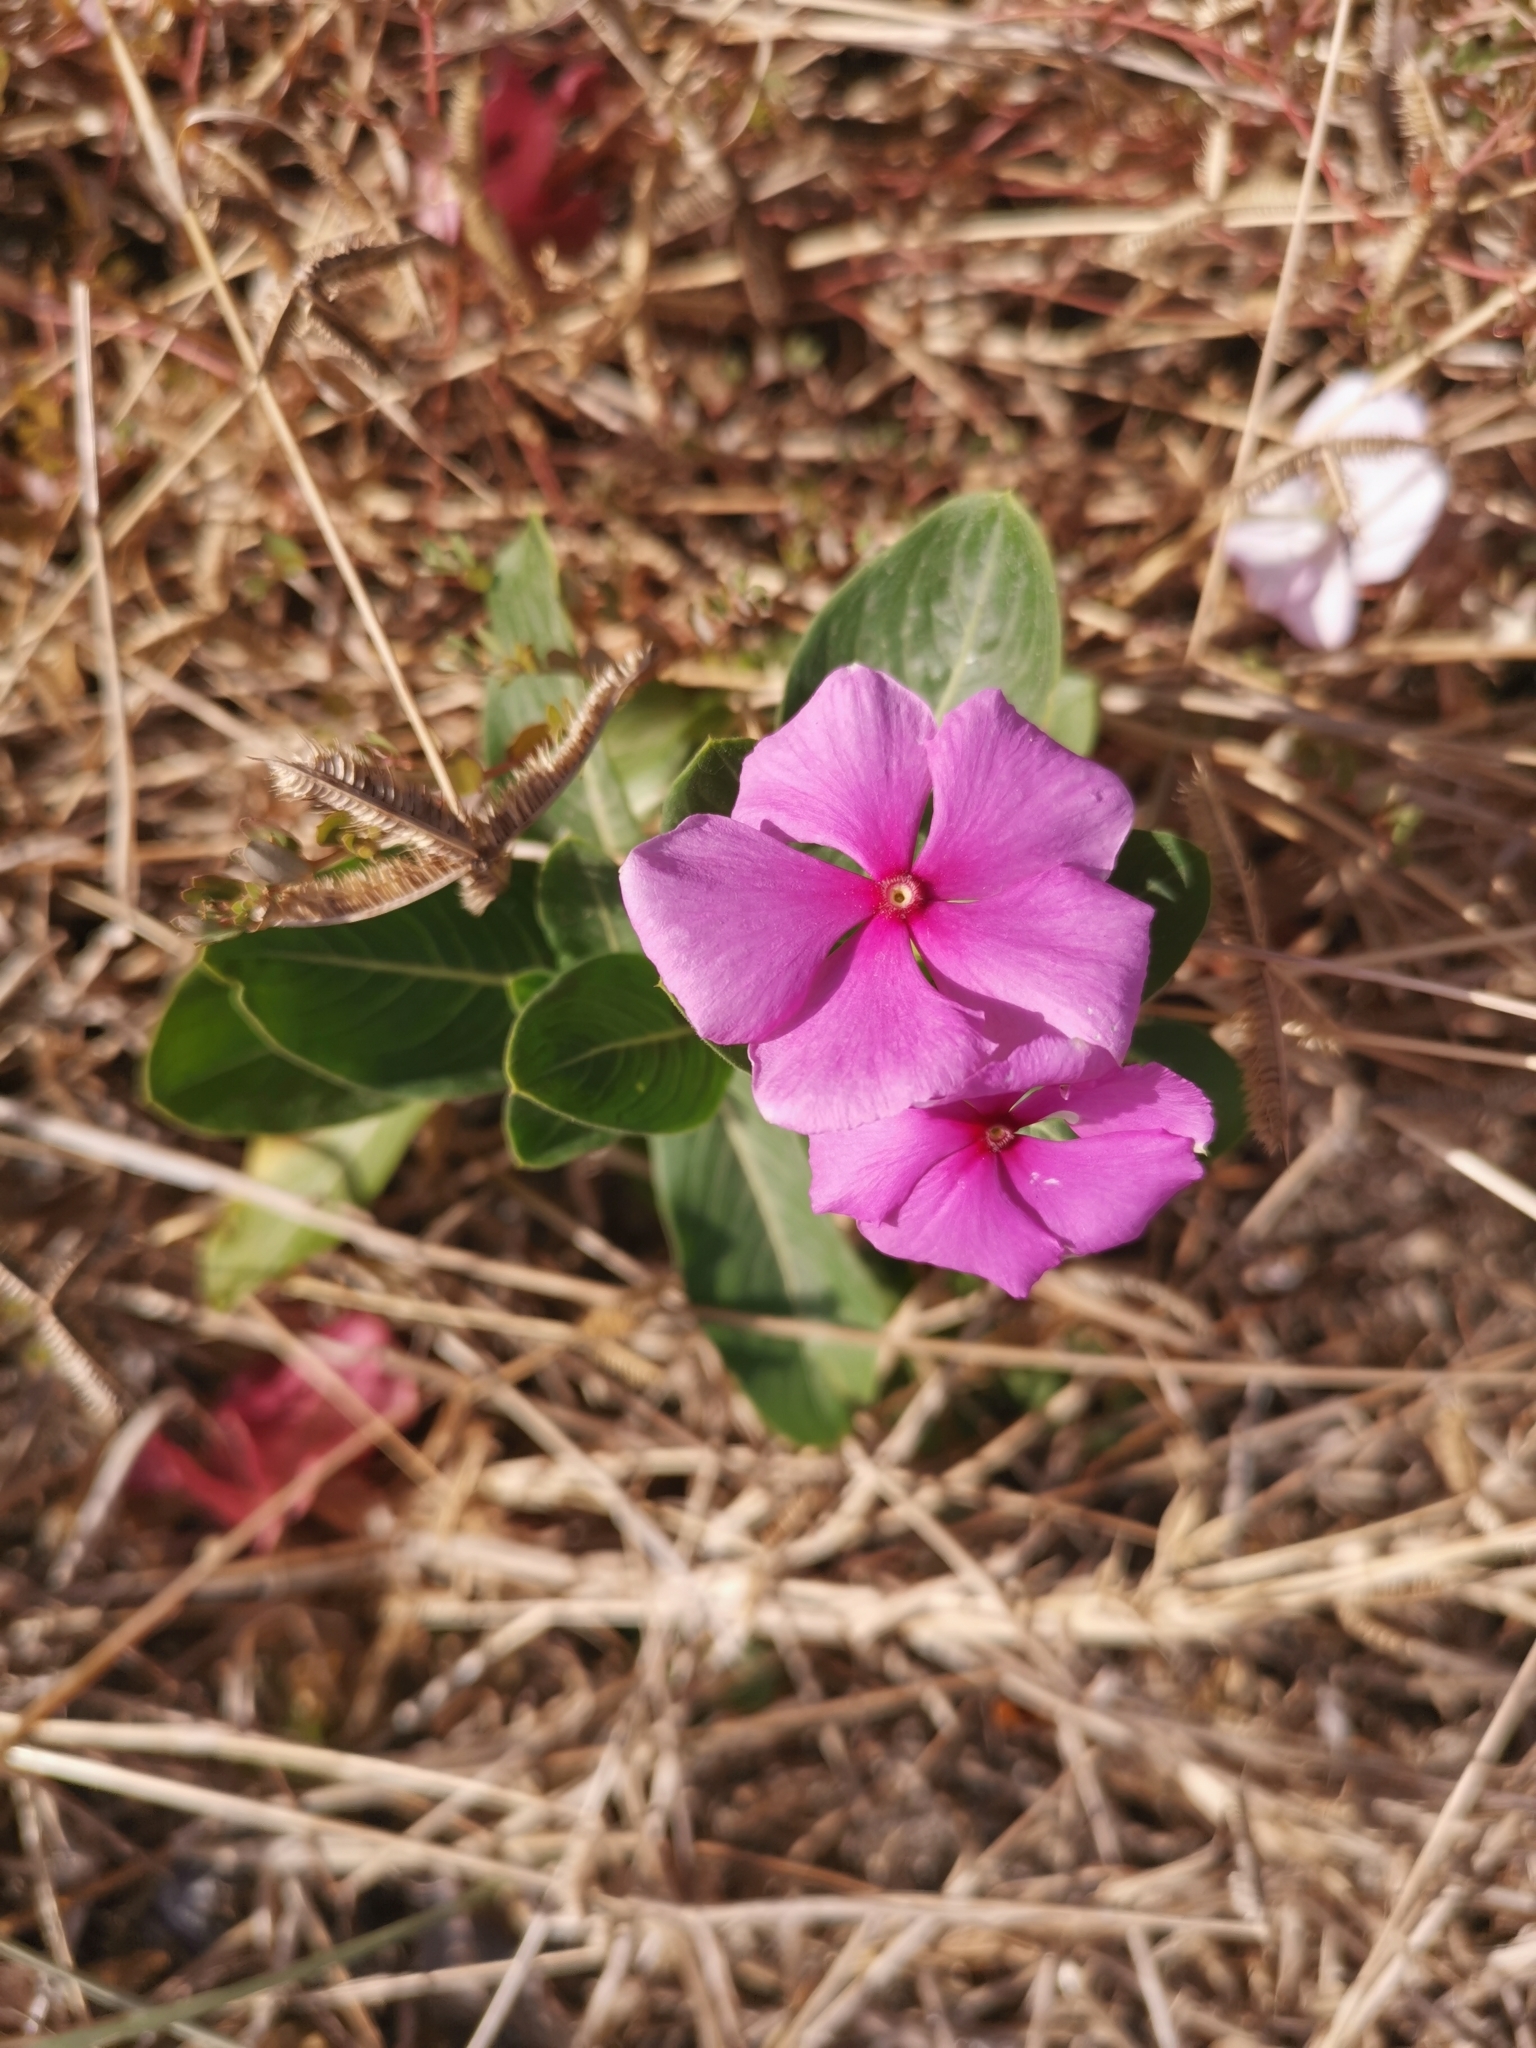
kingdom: Plantae
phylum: Tracheophyta
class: Magnoliopsida
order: Gentianales
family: Apocynaceae
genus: Catharanthus
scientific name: Catharanthus roseus
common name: Madagascar periwinkle
